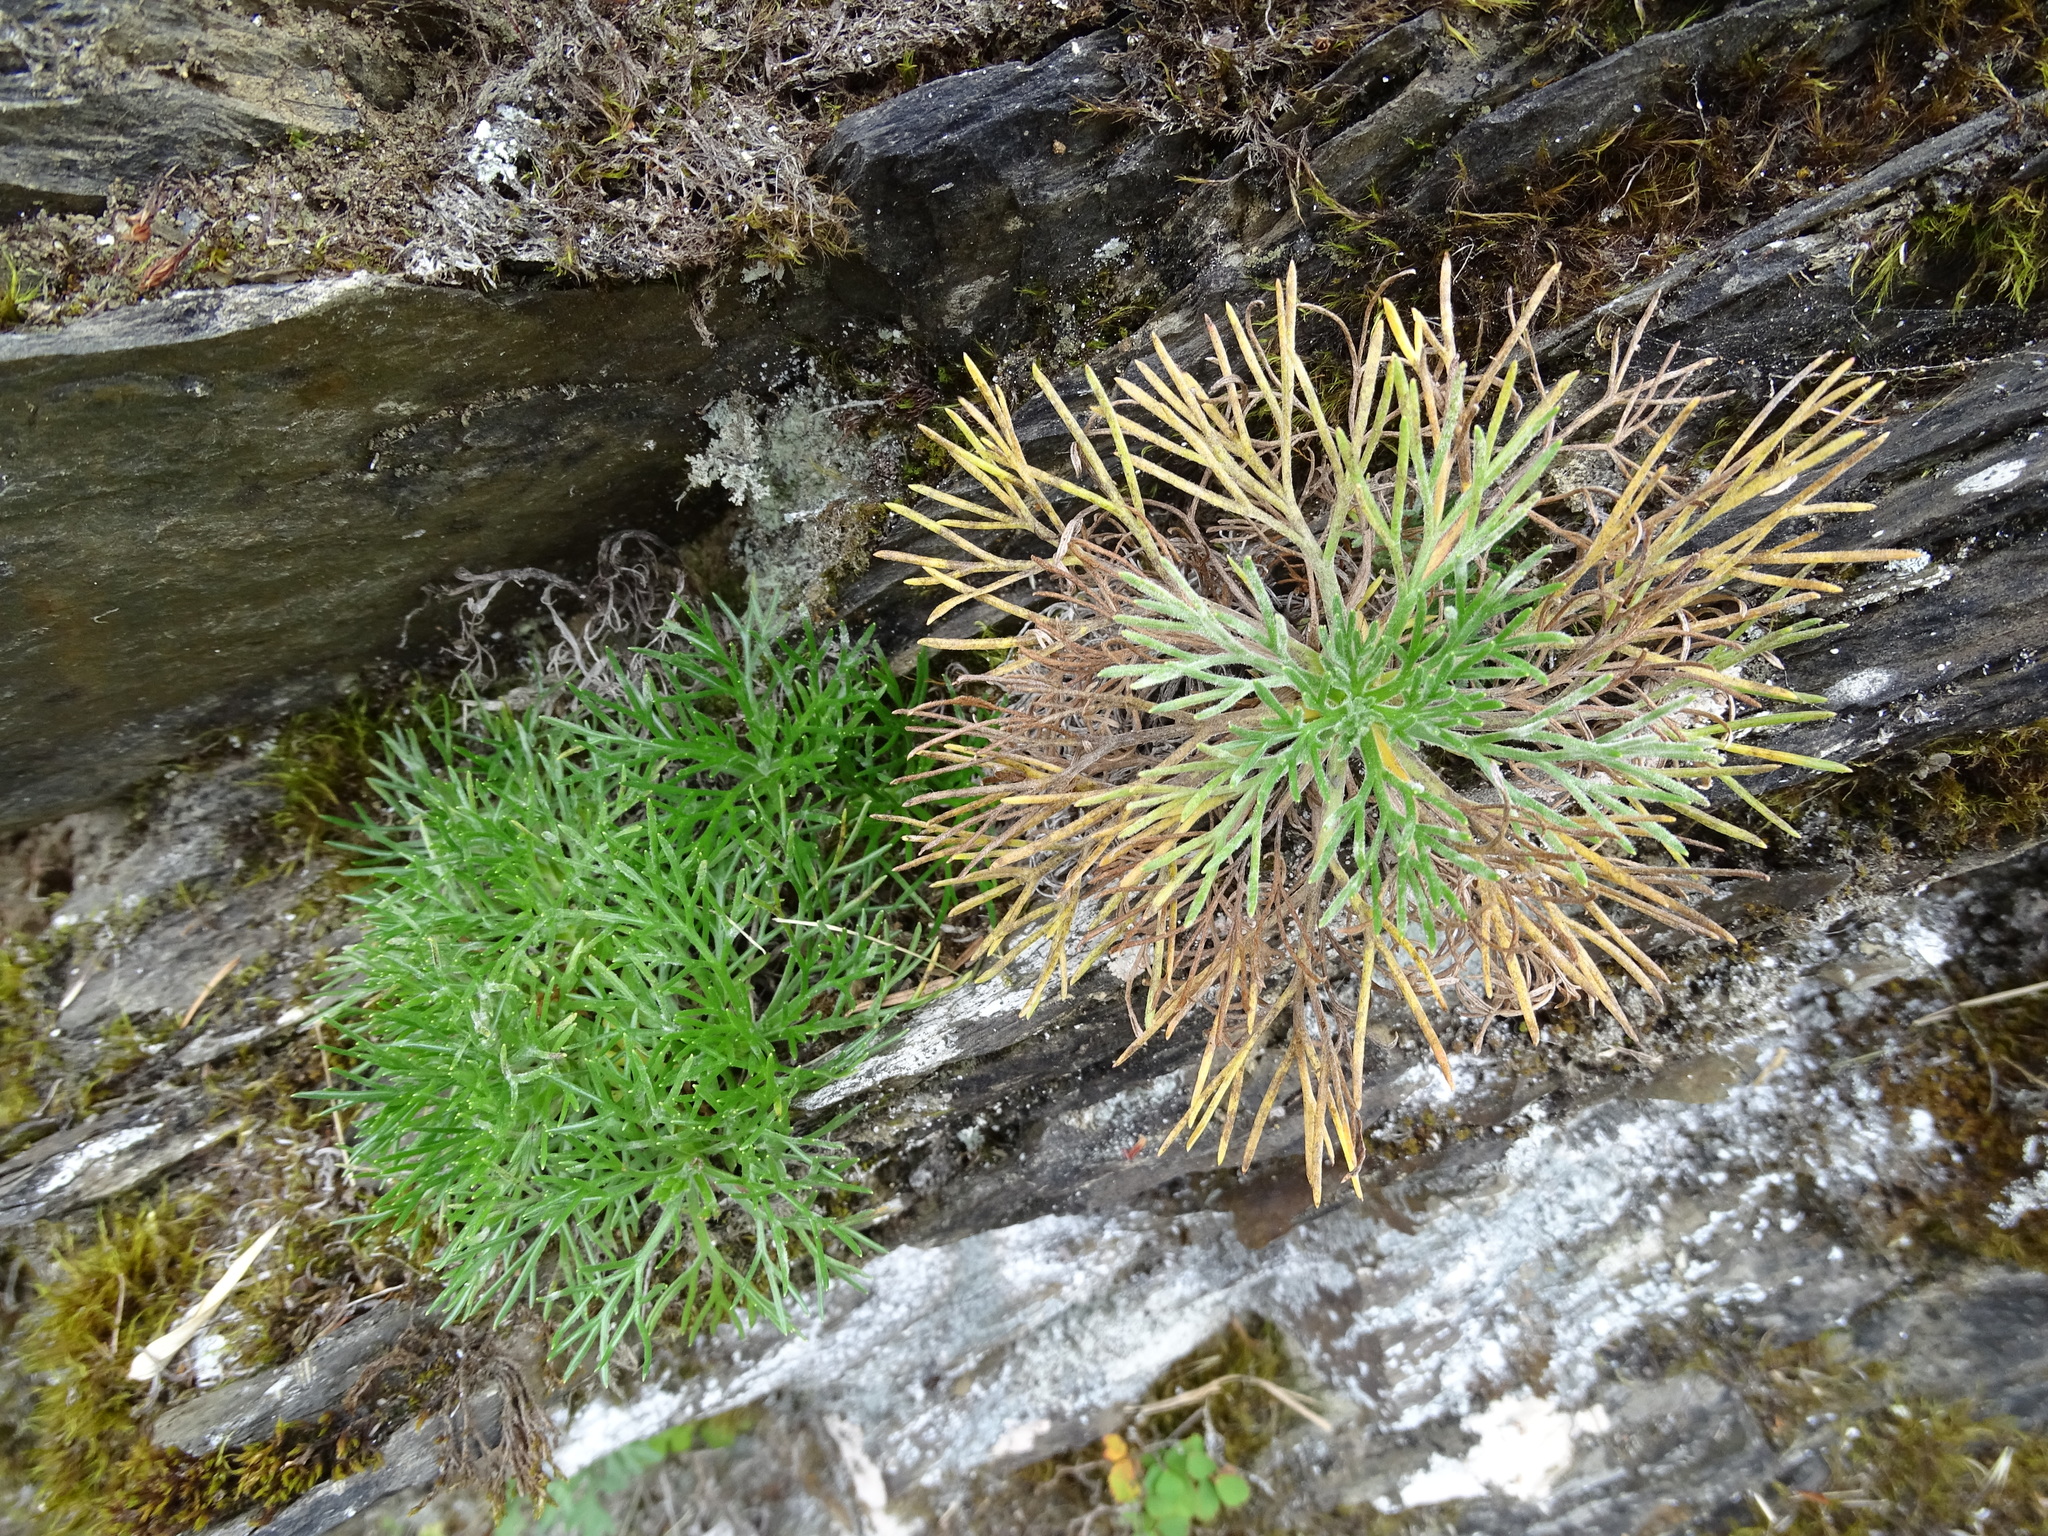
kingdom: Plantae
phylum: Tracheophyta
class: Magnoliopsida
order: Asterales
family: Asteraceae
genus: Artemisia
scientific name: Artemisia morrisonensis
